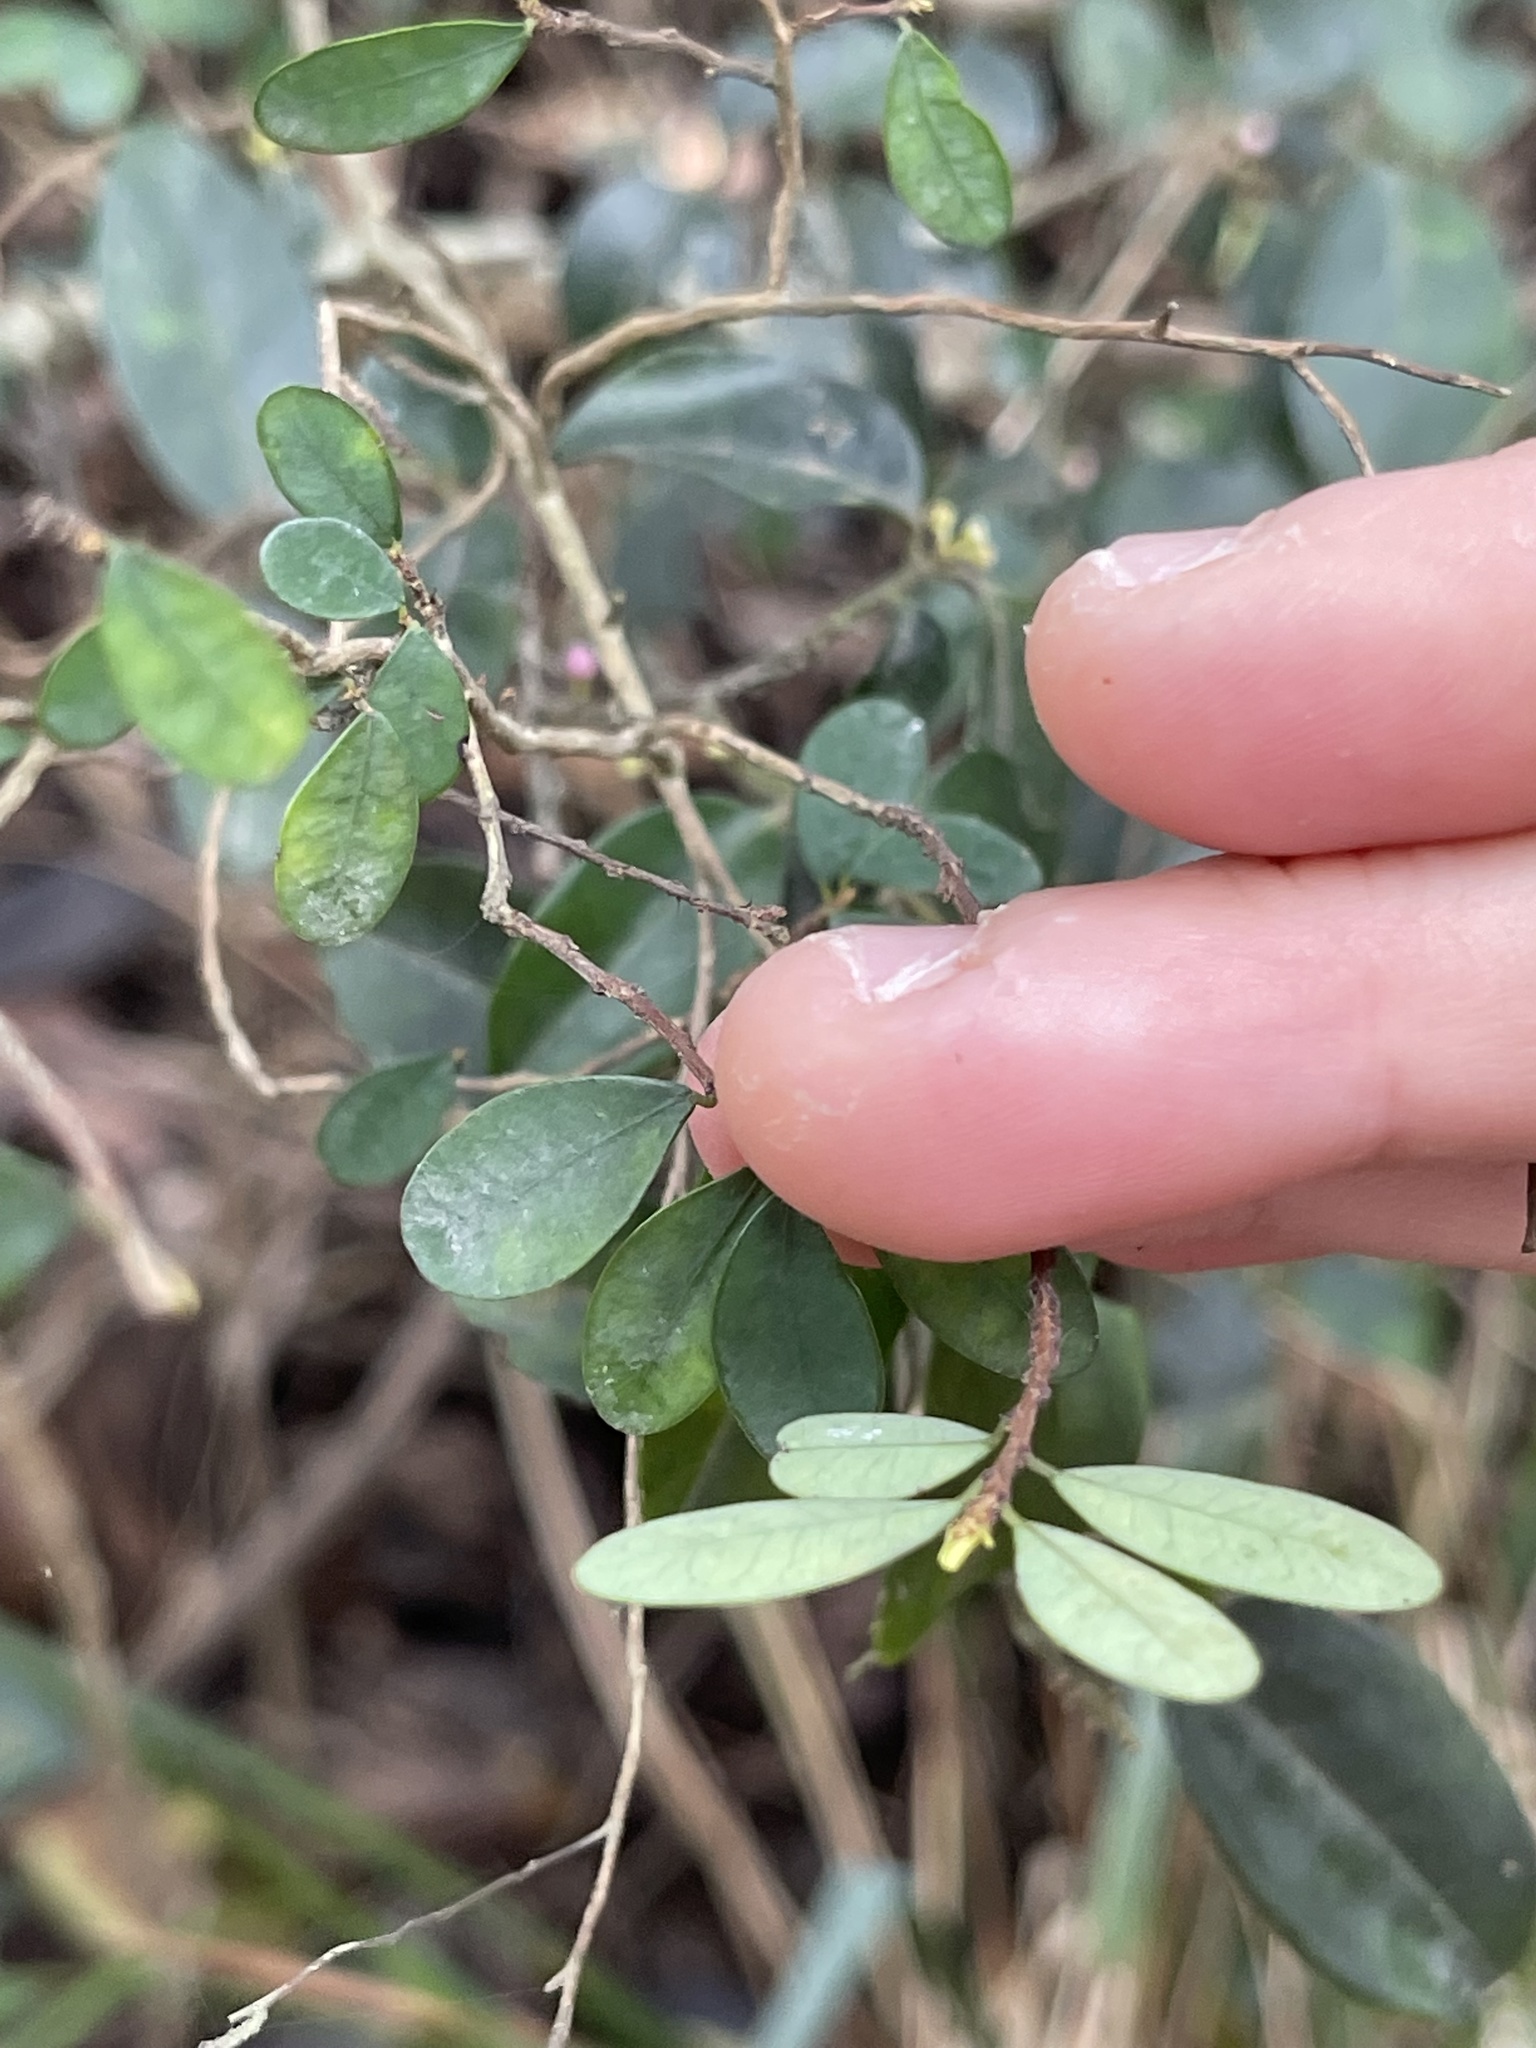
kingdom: Plantae
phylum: Tracheophyta
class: Magnoliopsida
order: Malpighiales
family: Phyllanthaceae
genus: Phyllanthus
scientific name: Phyllanthus cochinchinensis
